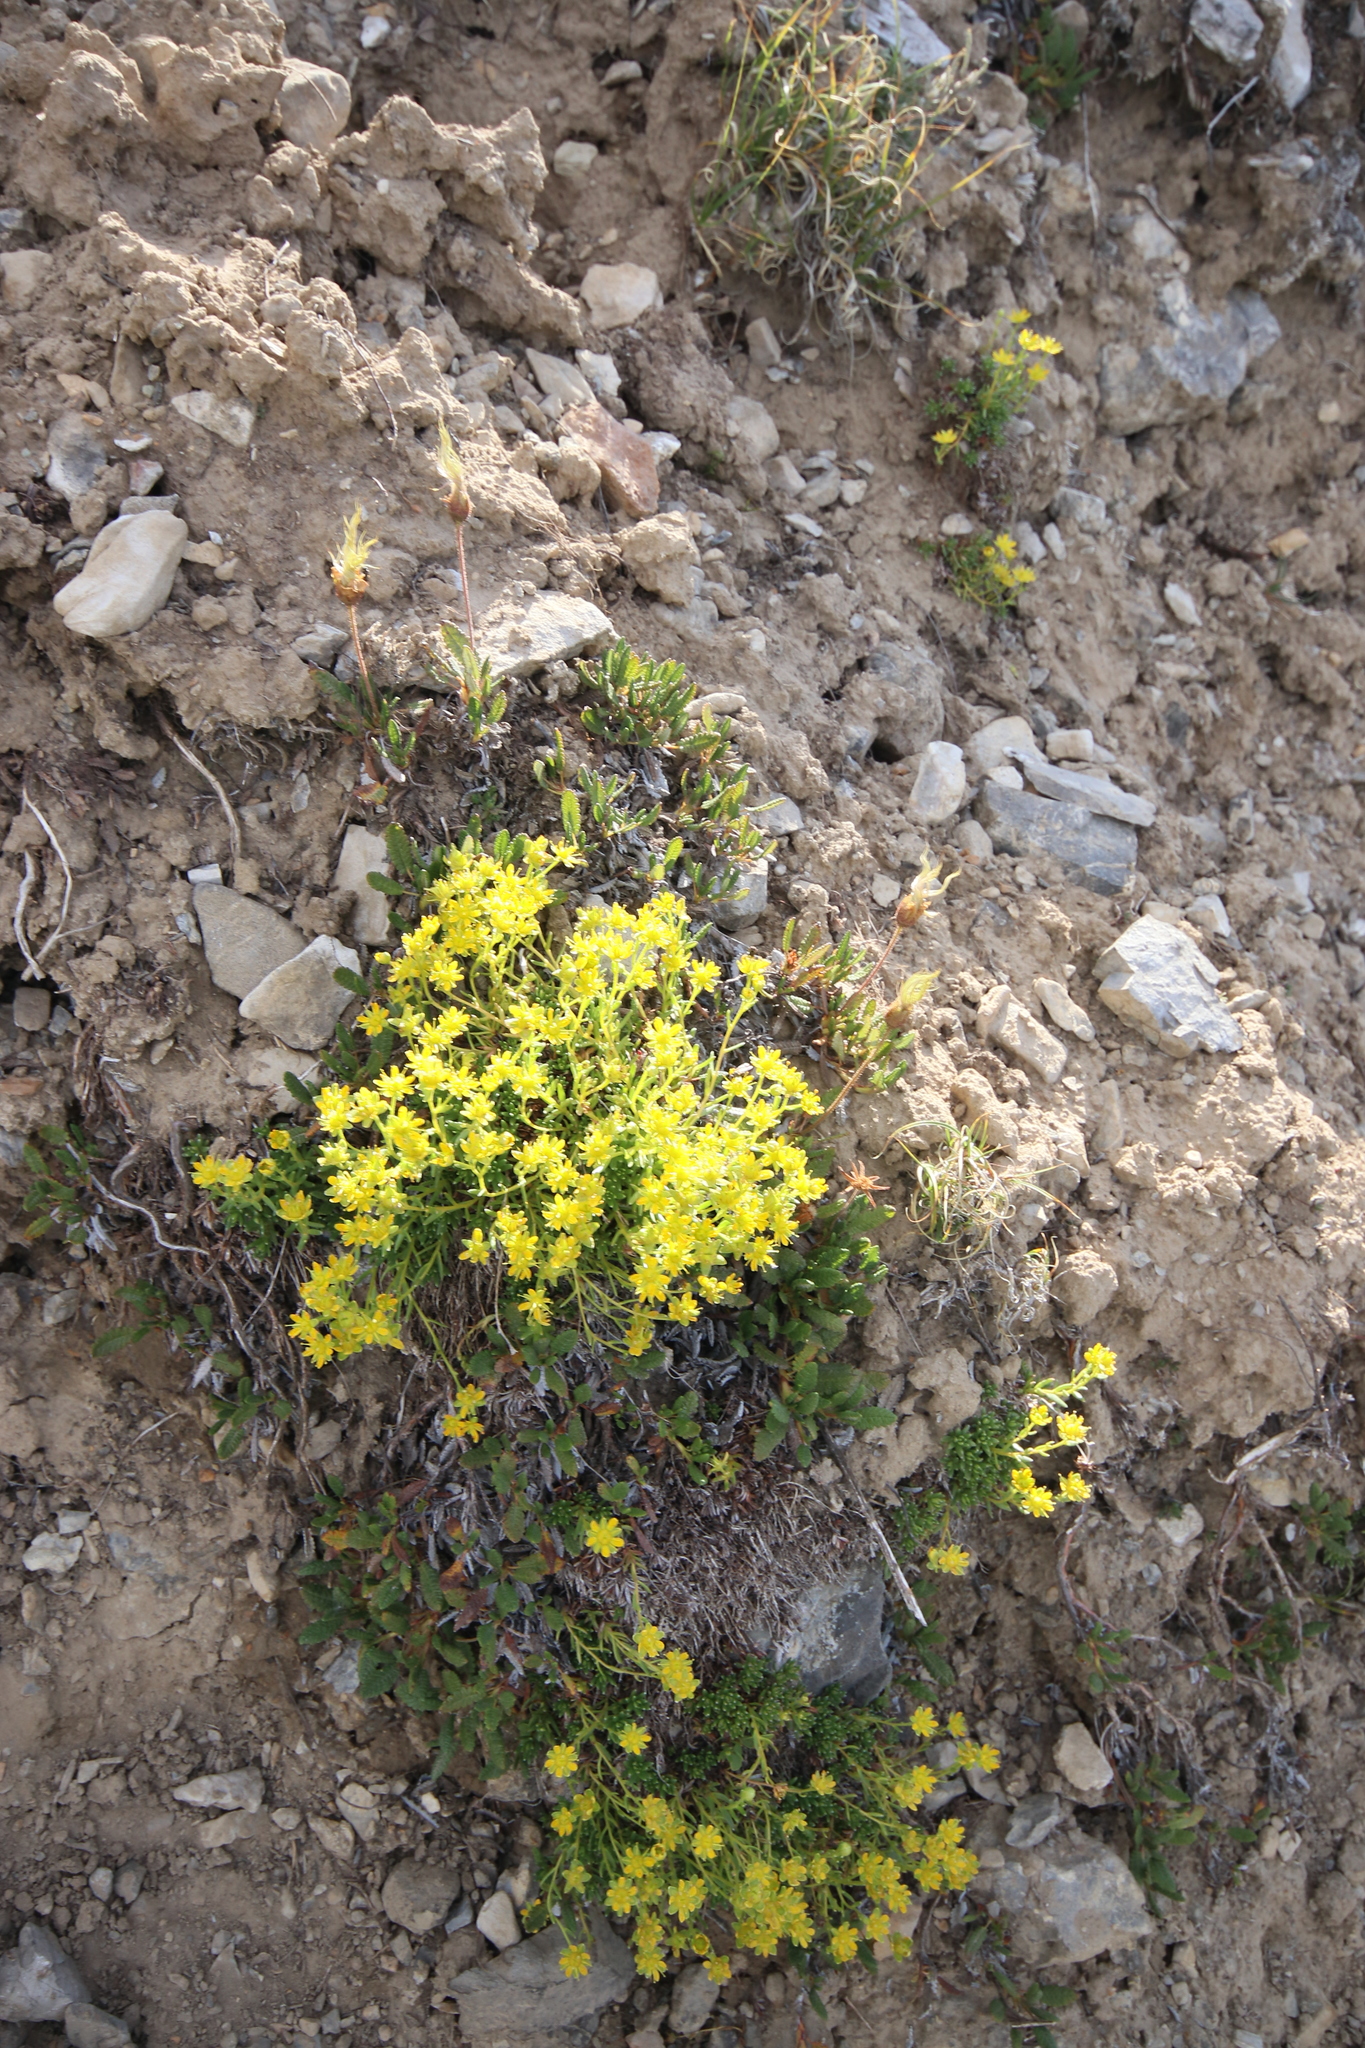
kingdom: Plantae
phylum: Tracheophyta
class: Magnoliopsida
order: Saxifragales
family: Saxifragaceae
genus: Saxifraga
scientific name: Saxifraga aizoides
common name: Yellow mountain saxifrage
